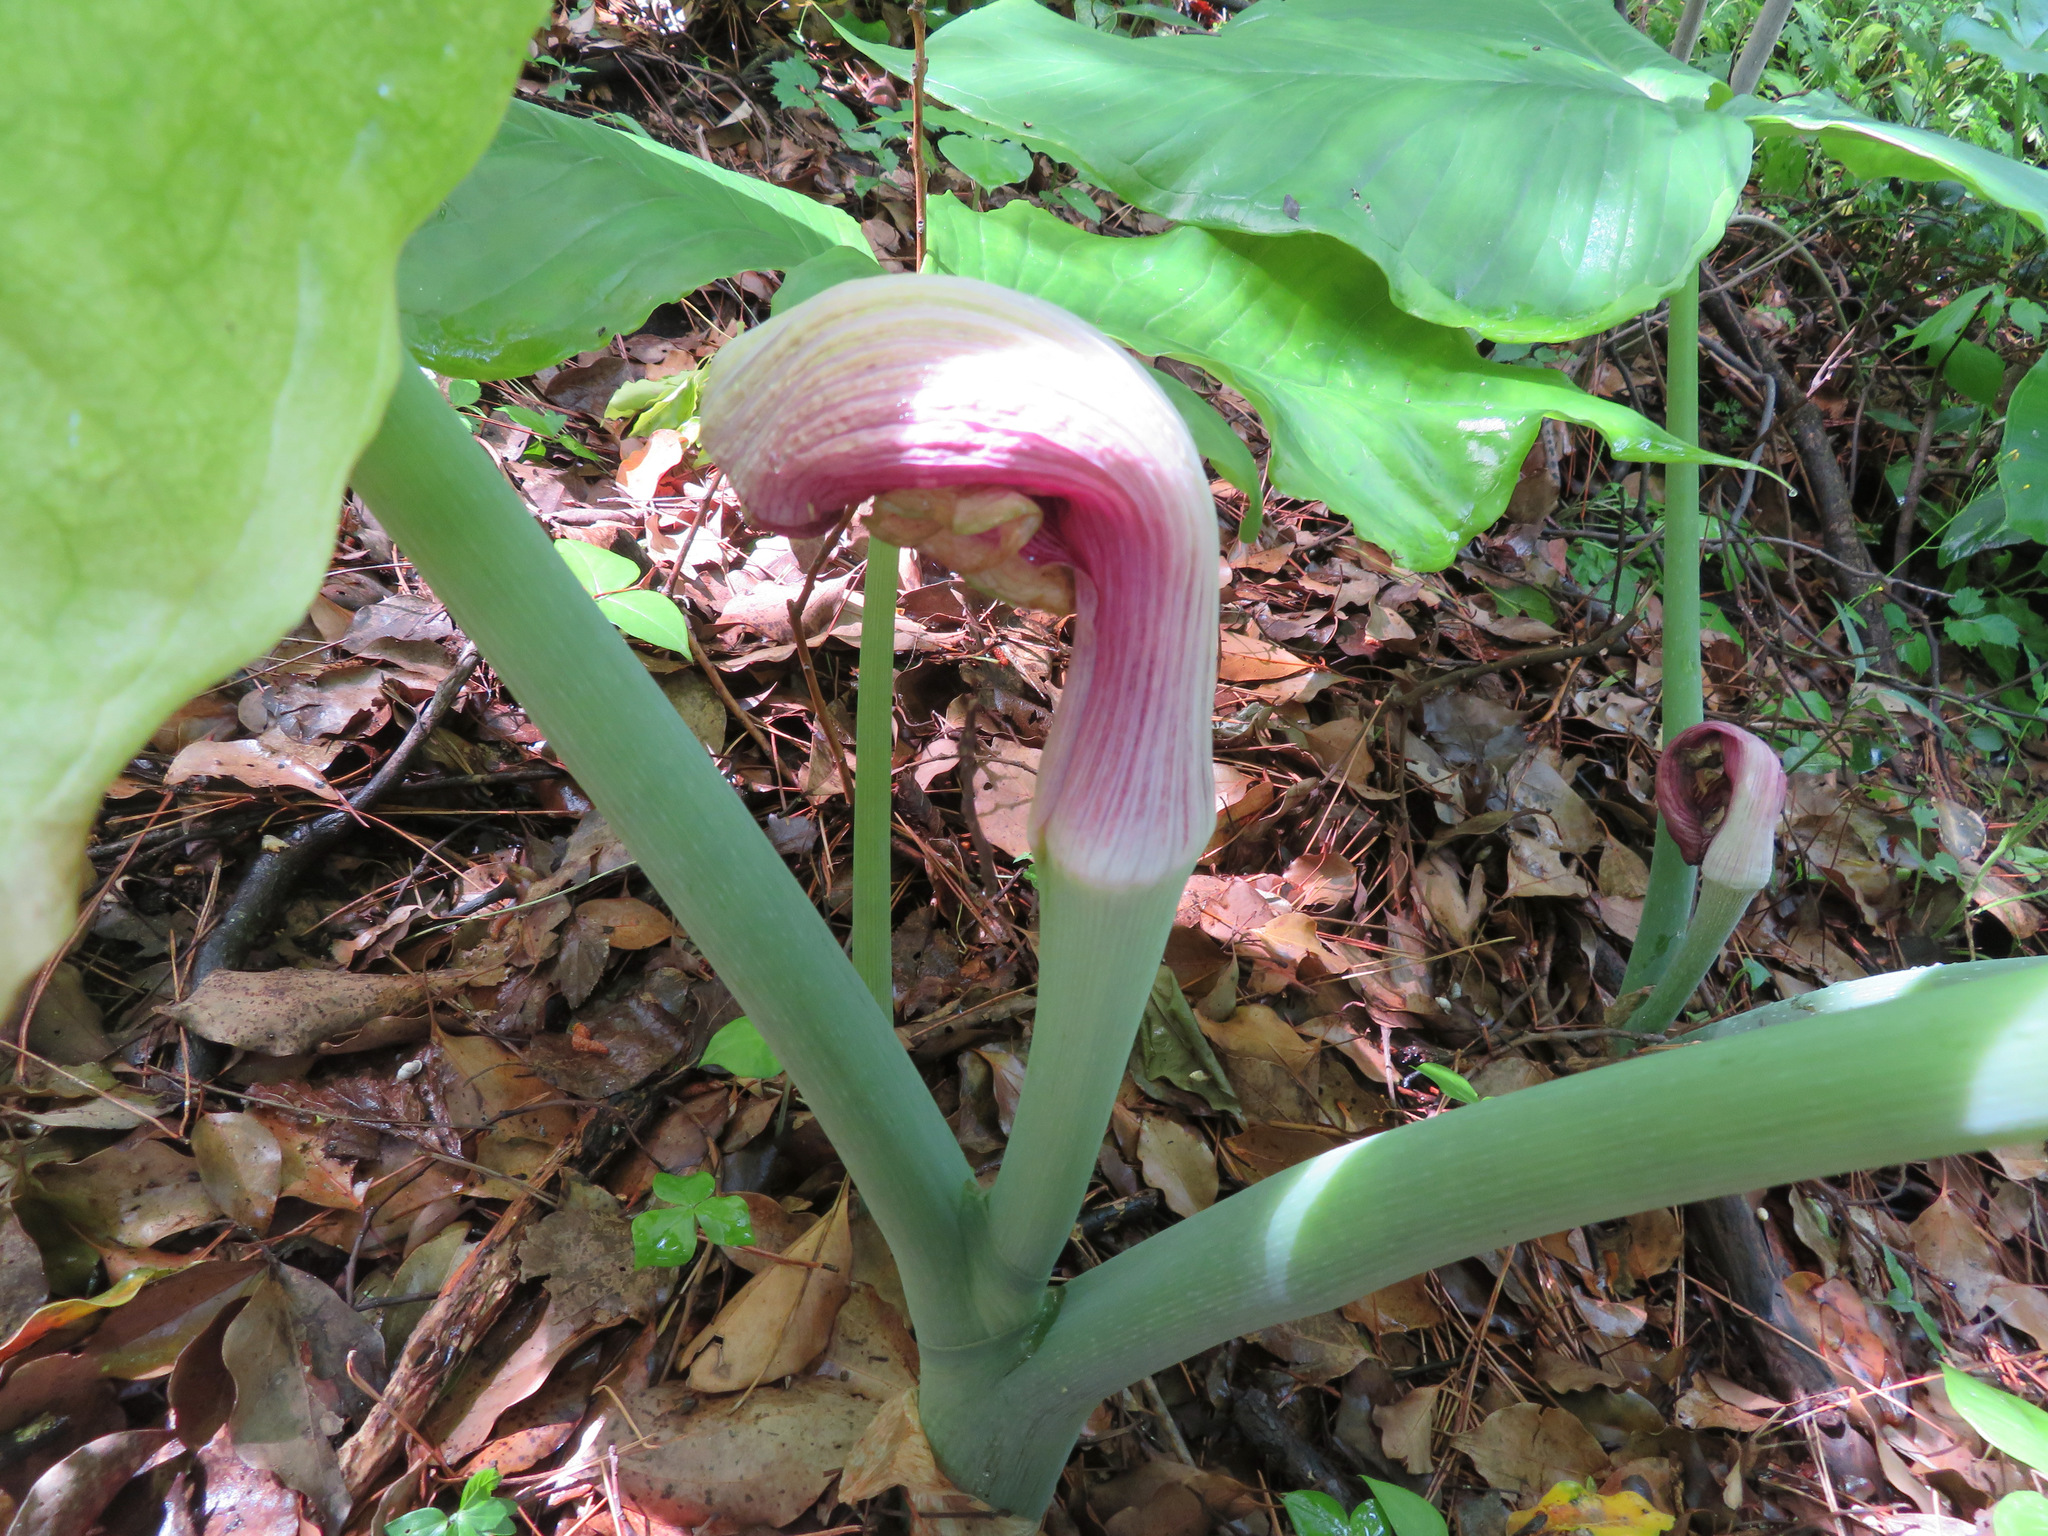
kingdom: Plantae
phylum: Tracheophyta
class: Liliopsida
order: Alismatales
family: Araceae
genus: Arisaema
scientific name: Arisaema ringens
